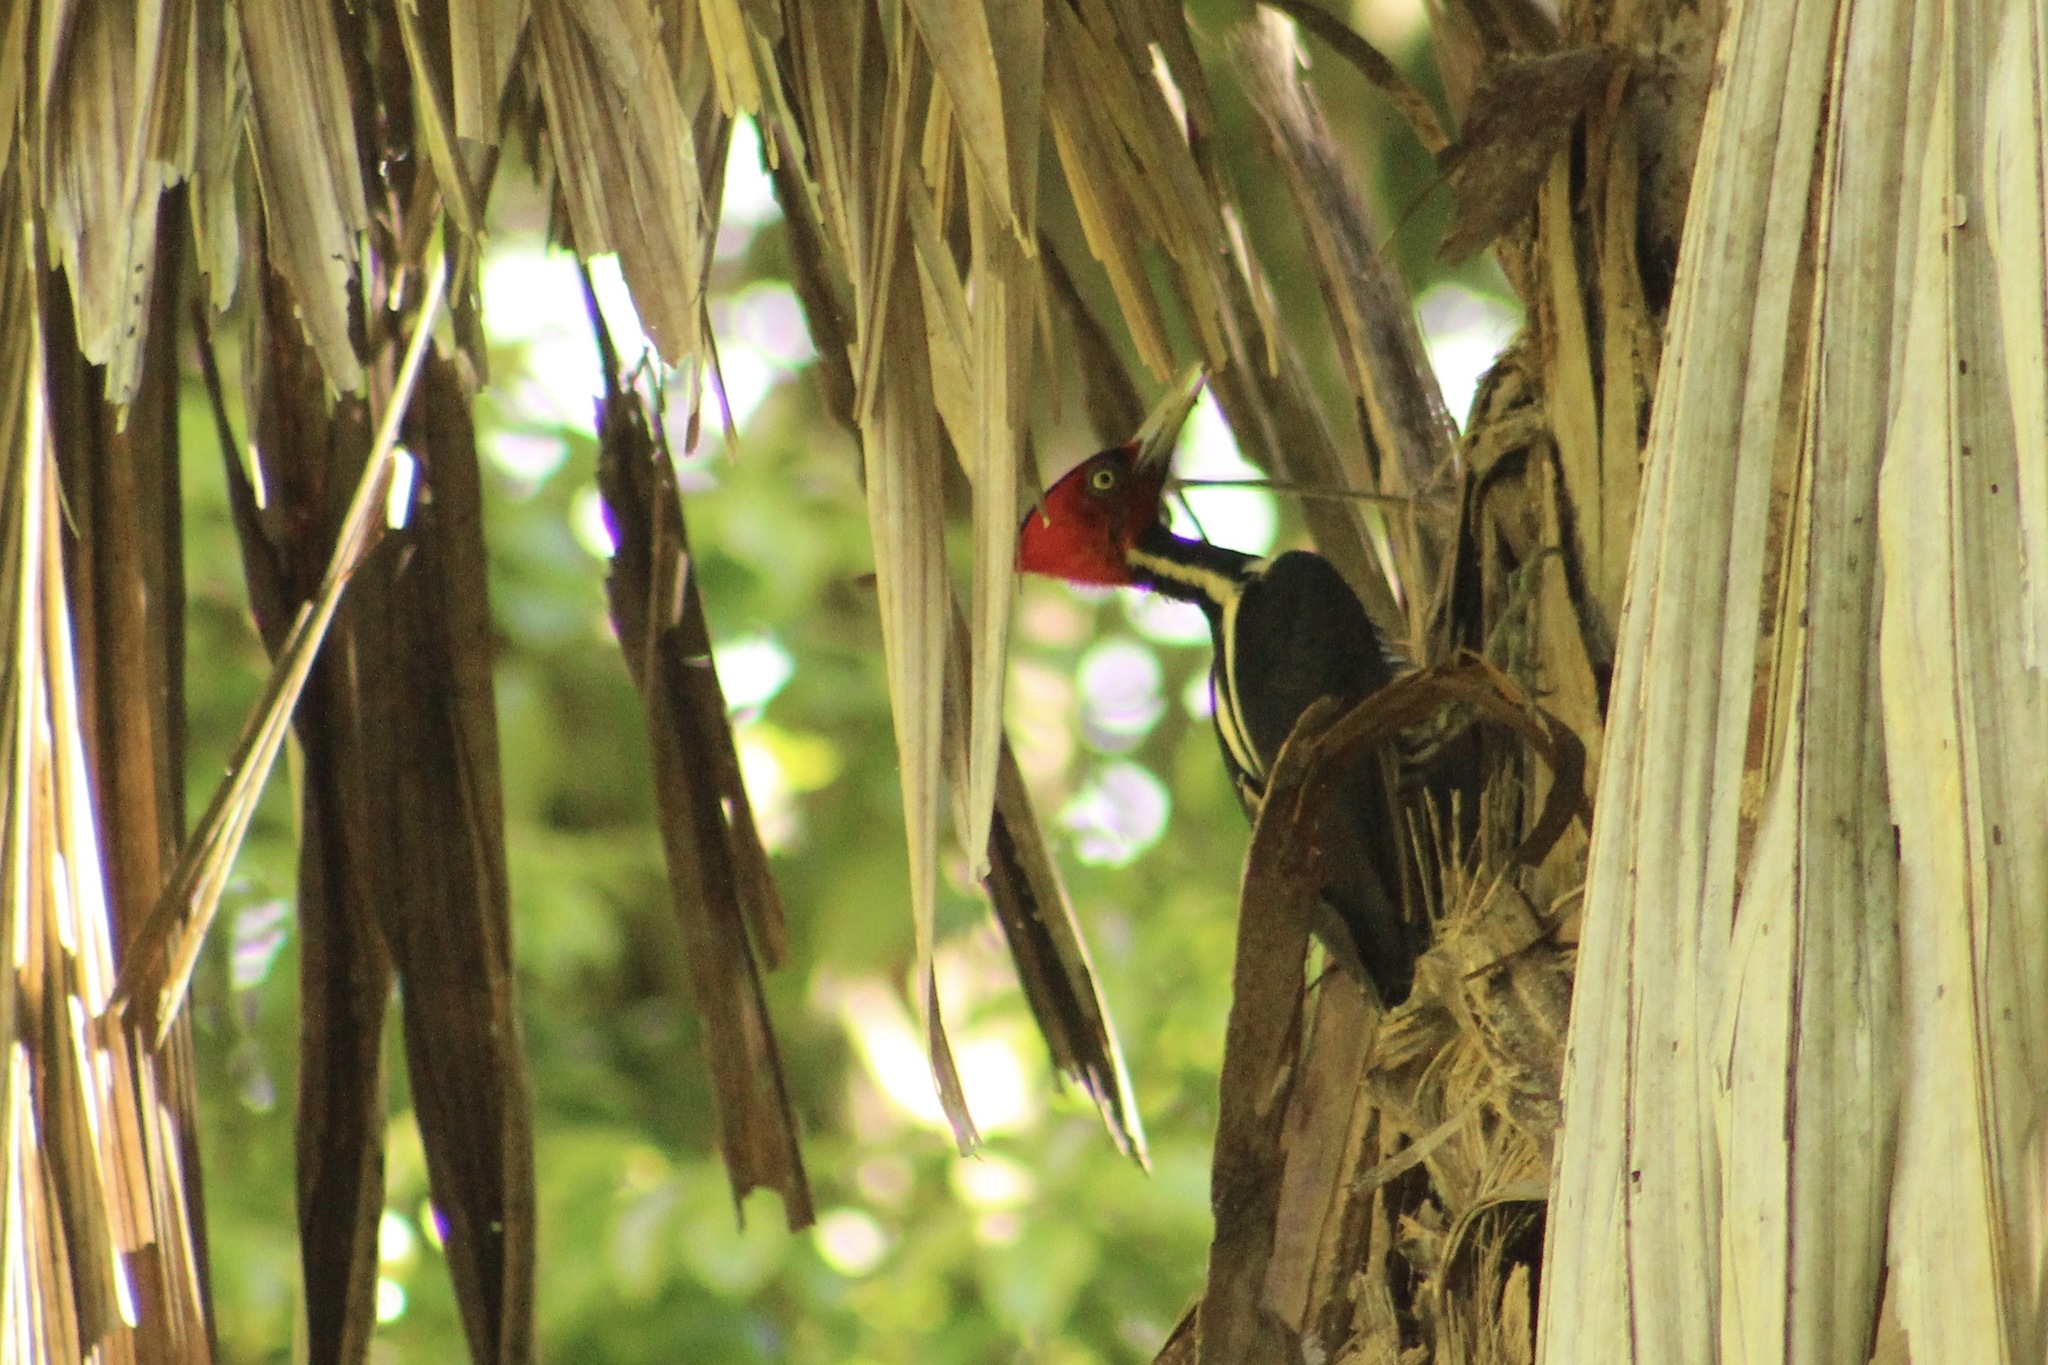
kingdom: Animalia
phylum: Chordata
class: Aves
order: Piciformes
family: Picidae
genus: Campephilus
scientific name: Campephilus guatemalensis
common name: Pale-billed woodpecker
